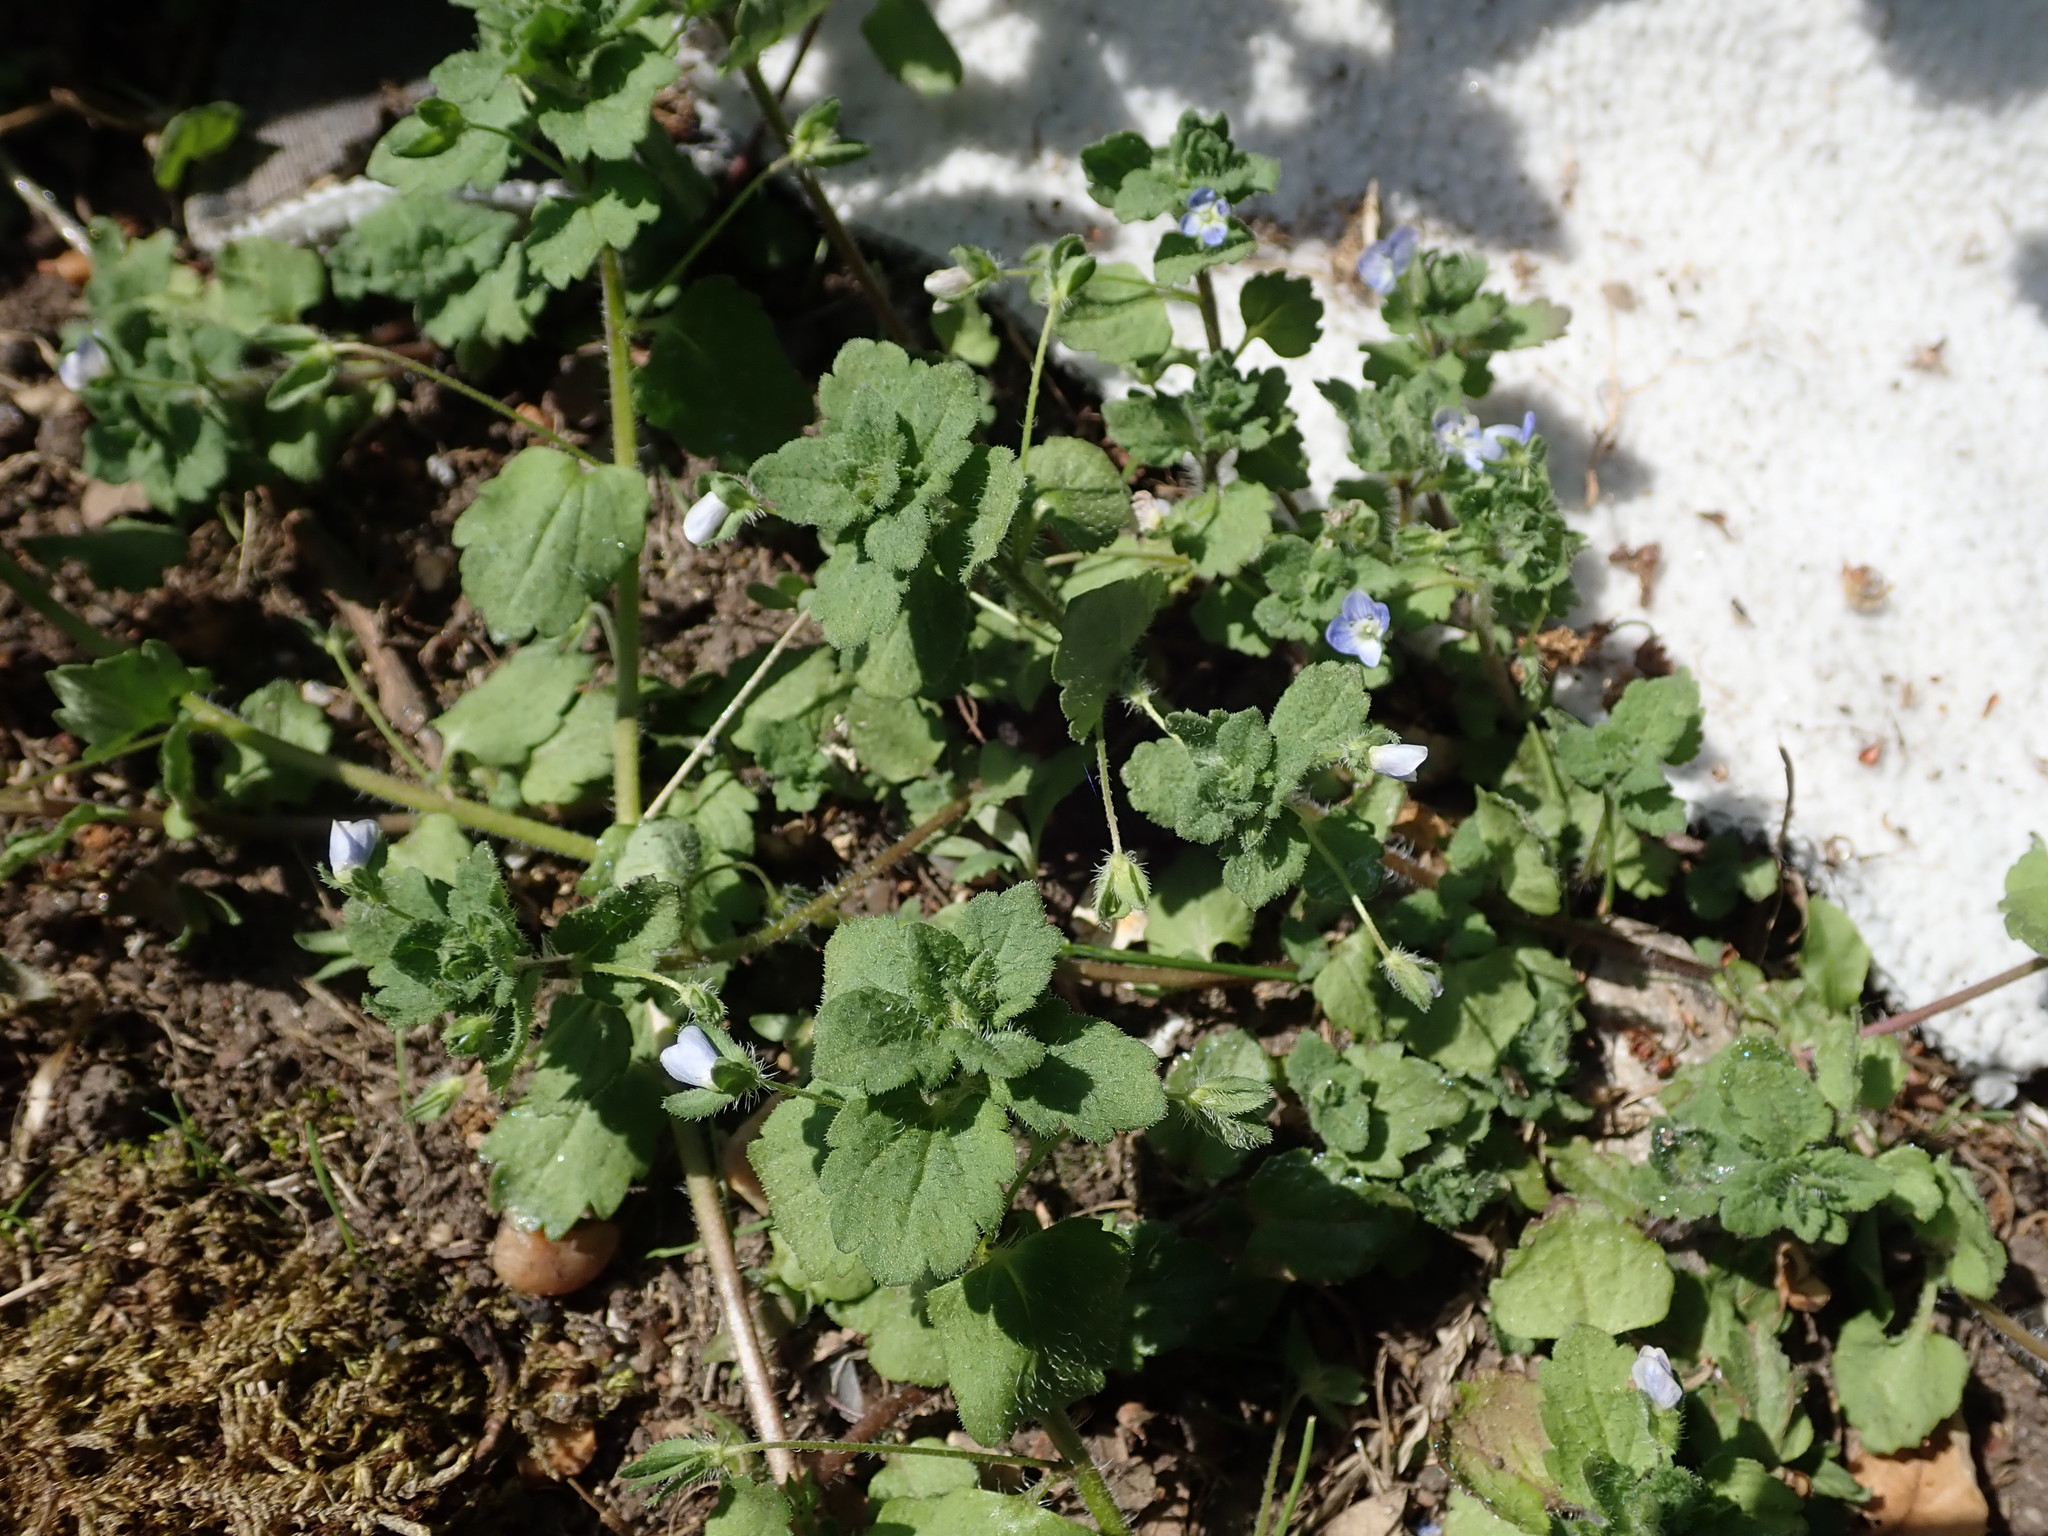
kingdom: Plantae
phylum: Tracheophyta
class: Magnoliopsida
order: Lamiales
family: Plantaginaceae
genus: Veronica
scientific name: Veronica persica
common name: Common field-speedwell
